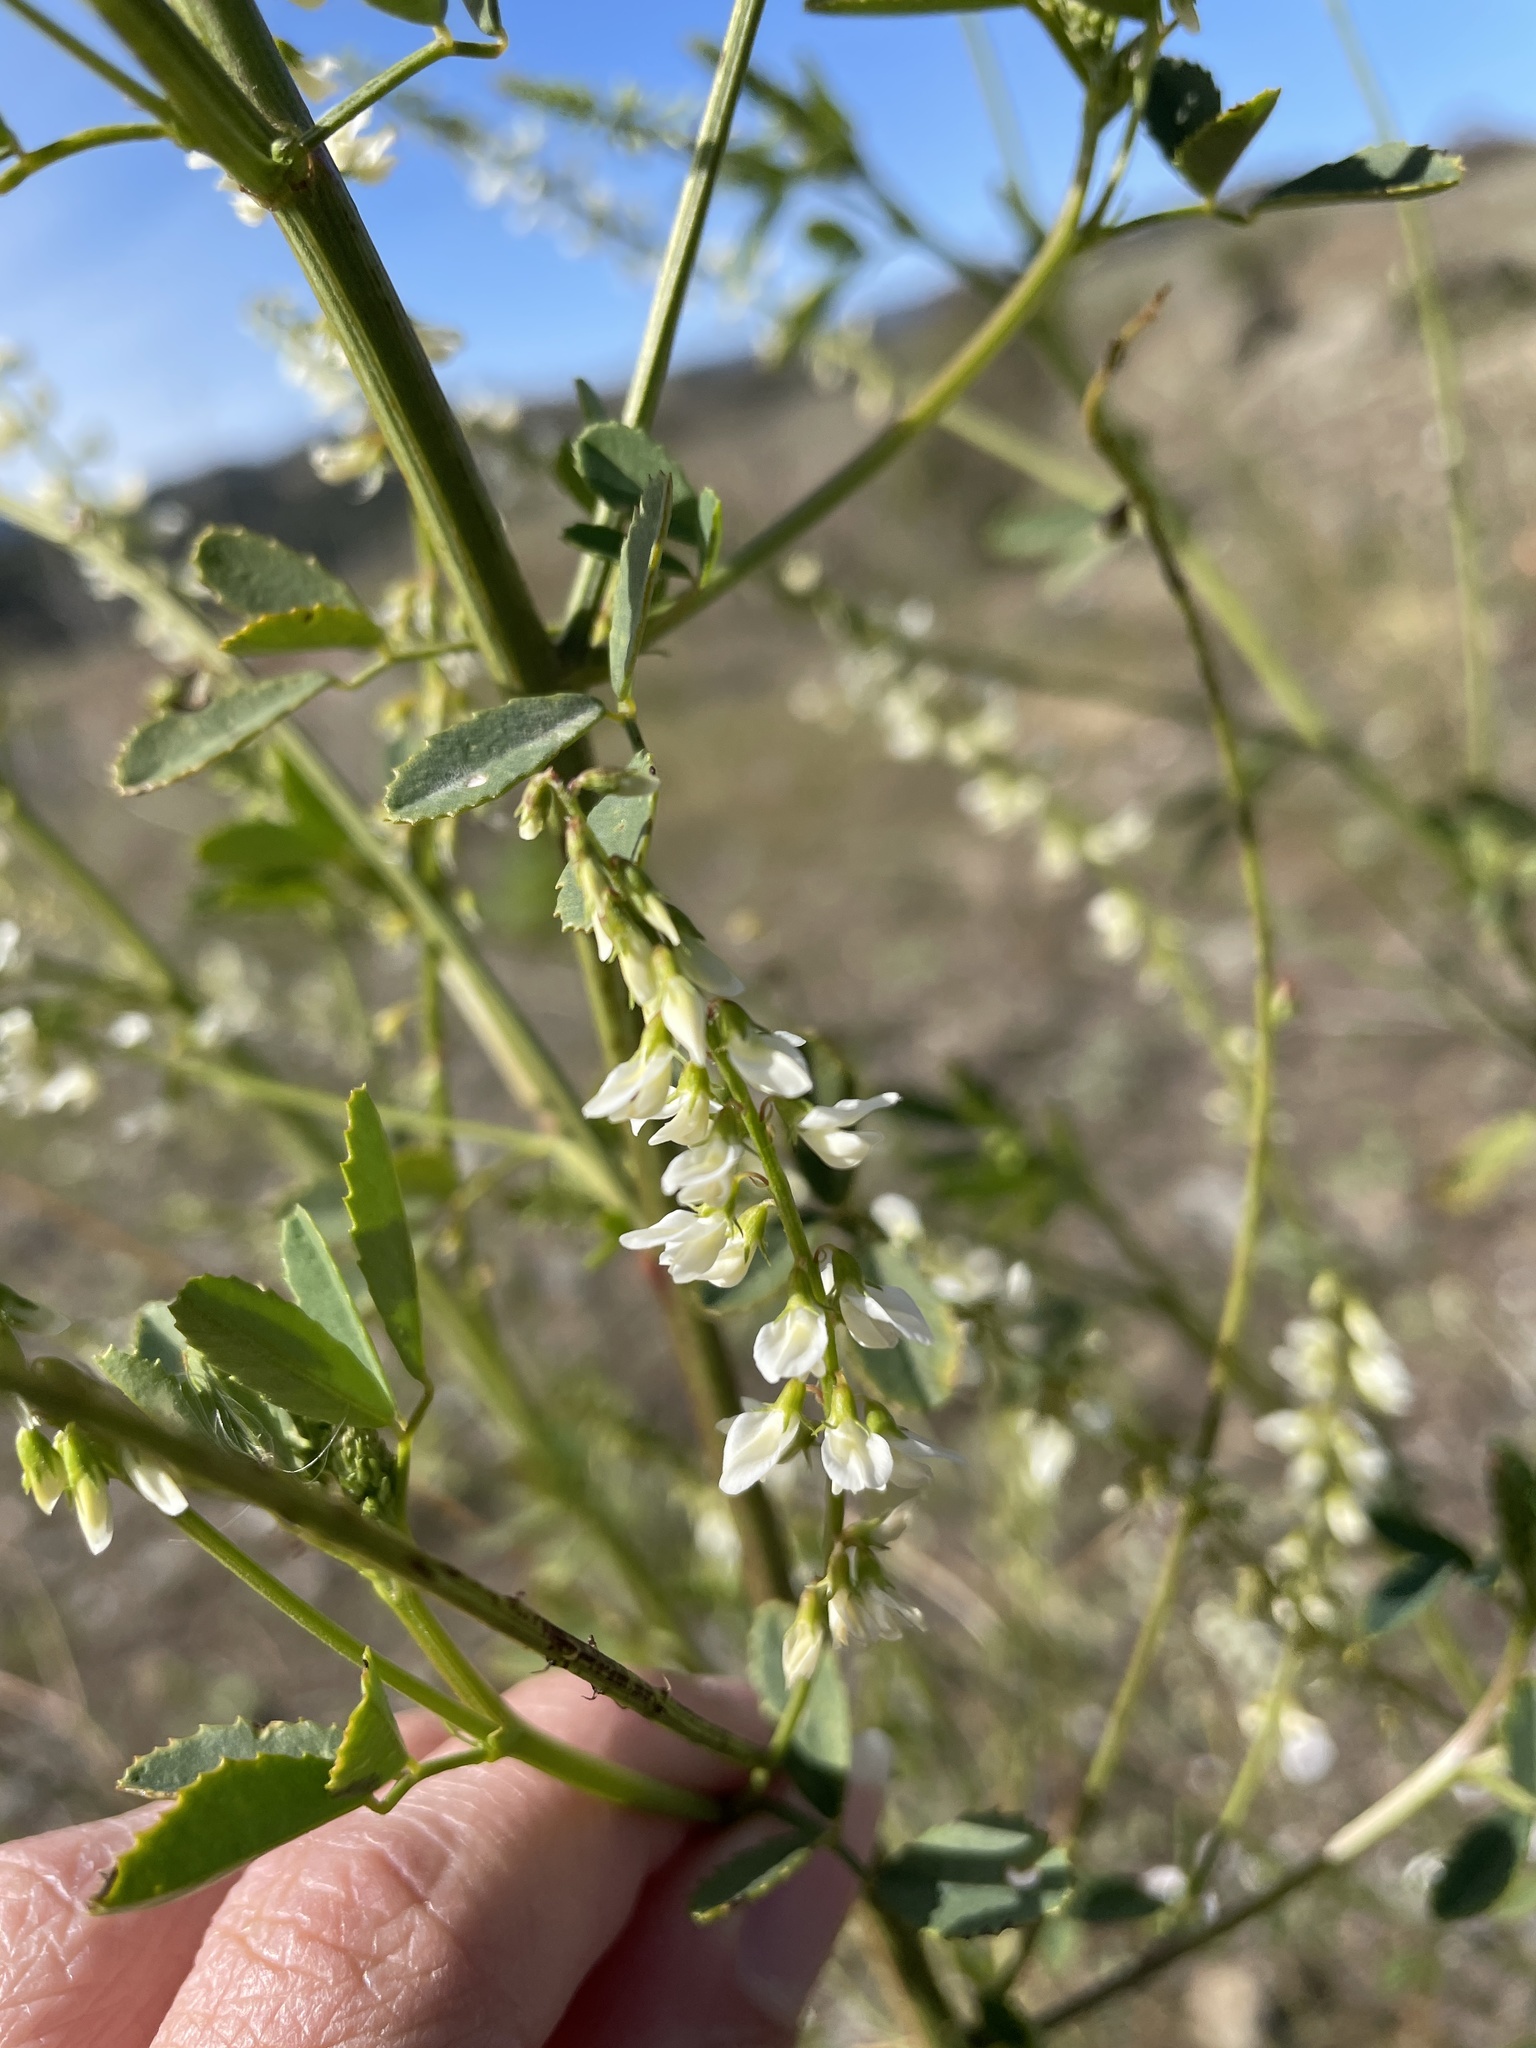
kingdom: Plantae
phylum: Tracheophyta
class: Magnoliopsida
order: Fabales
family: Fabaceae
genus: Melilotus
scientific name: Melilotus albus
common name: White melilot
